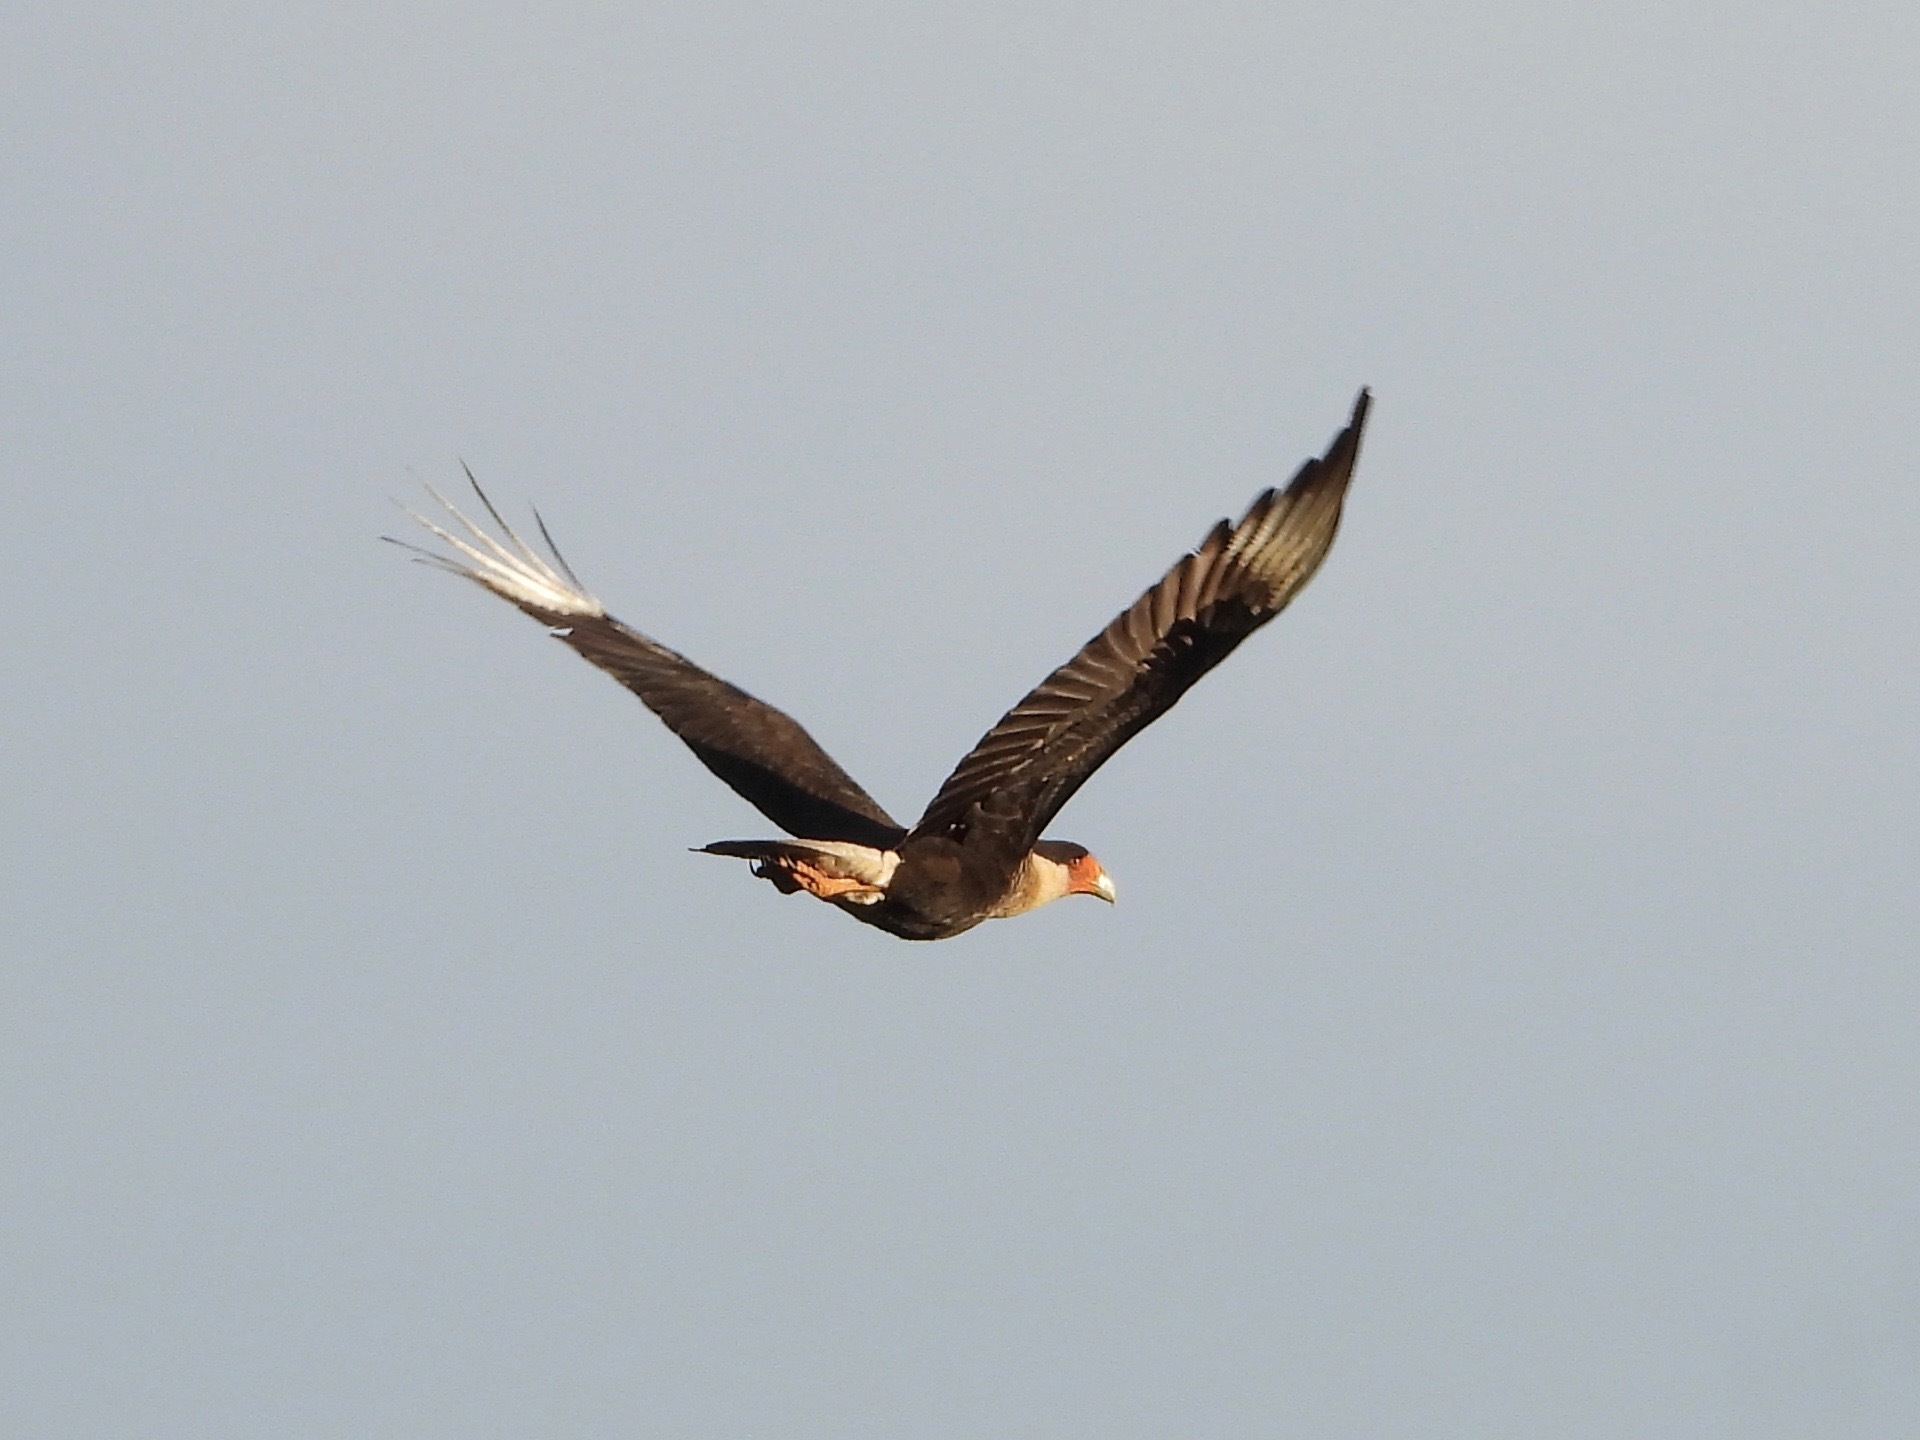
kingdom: Animalia
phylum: Chordata
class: Aves
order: Falconiformes
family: Falconidae
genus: Caracara
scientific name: Caracara plancus
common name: Southern caracara
